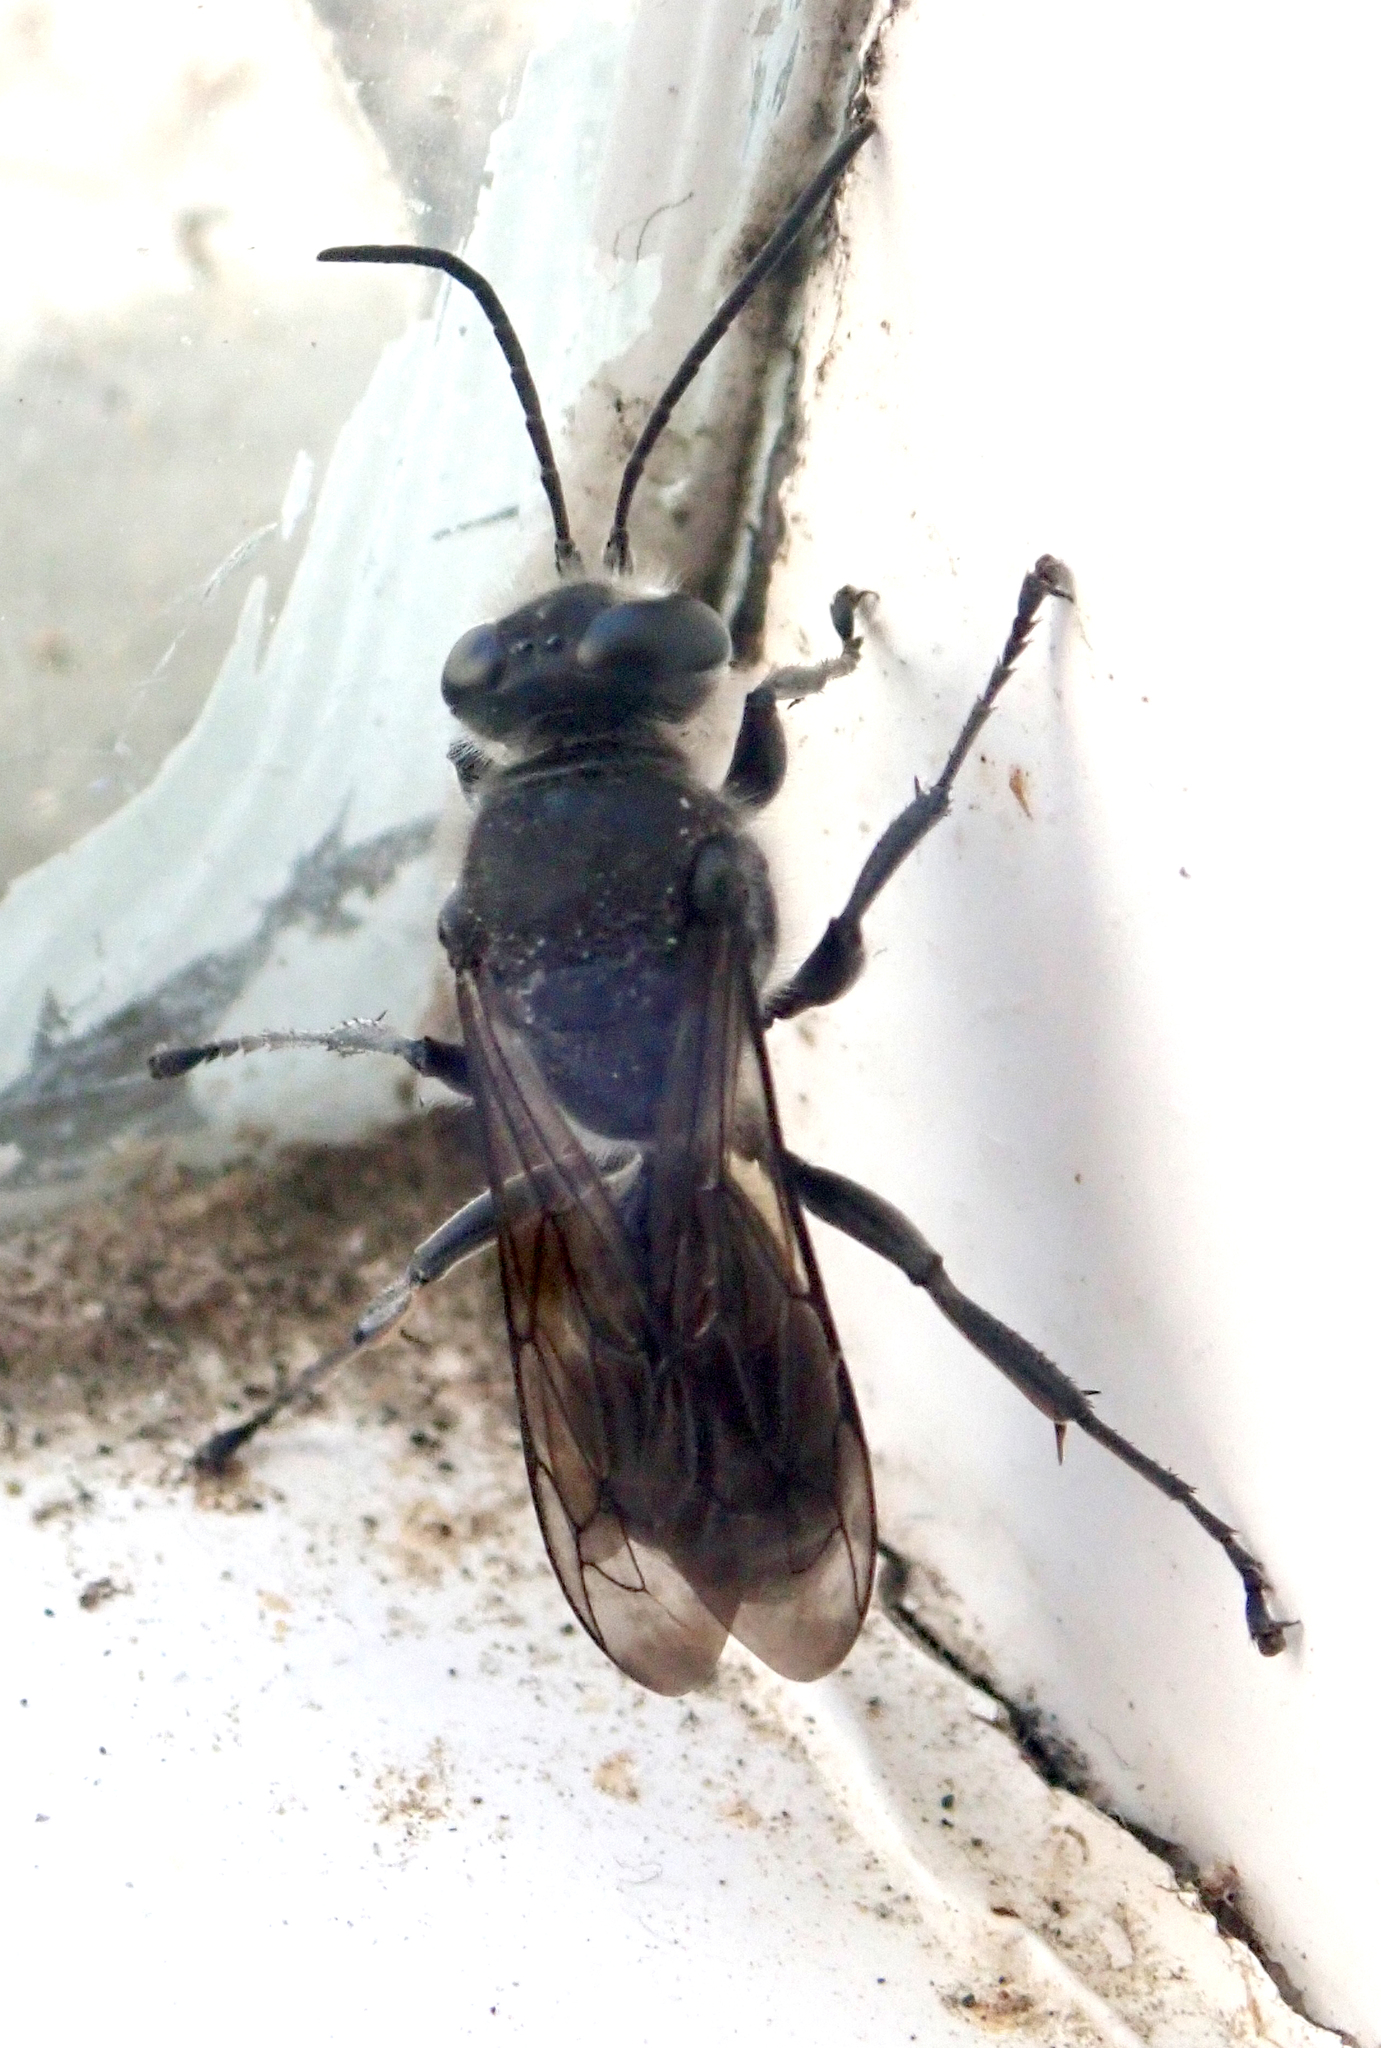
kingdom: Animalia
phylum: Arthropoda
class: Insecta
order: Hymenoptera
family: Crabronidae
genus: Pison
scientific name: Pison spinolae
